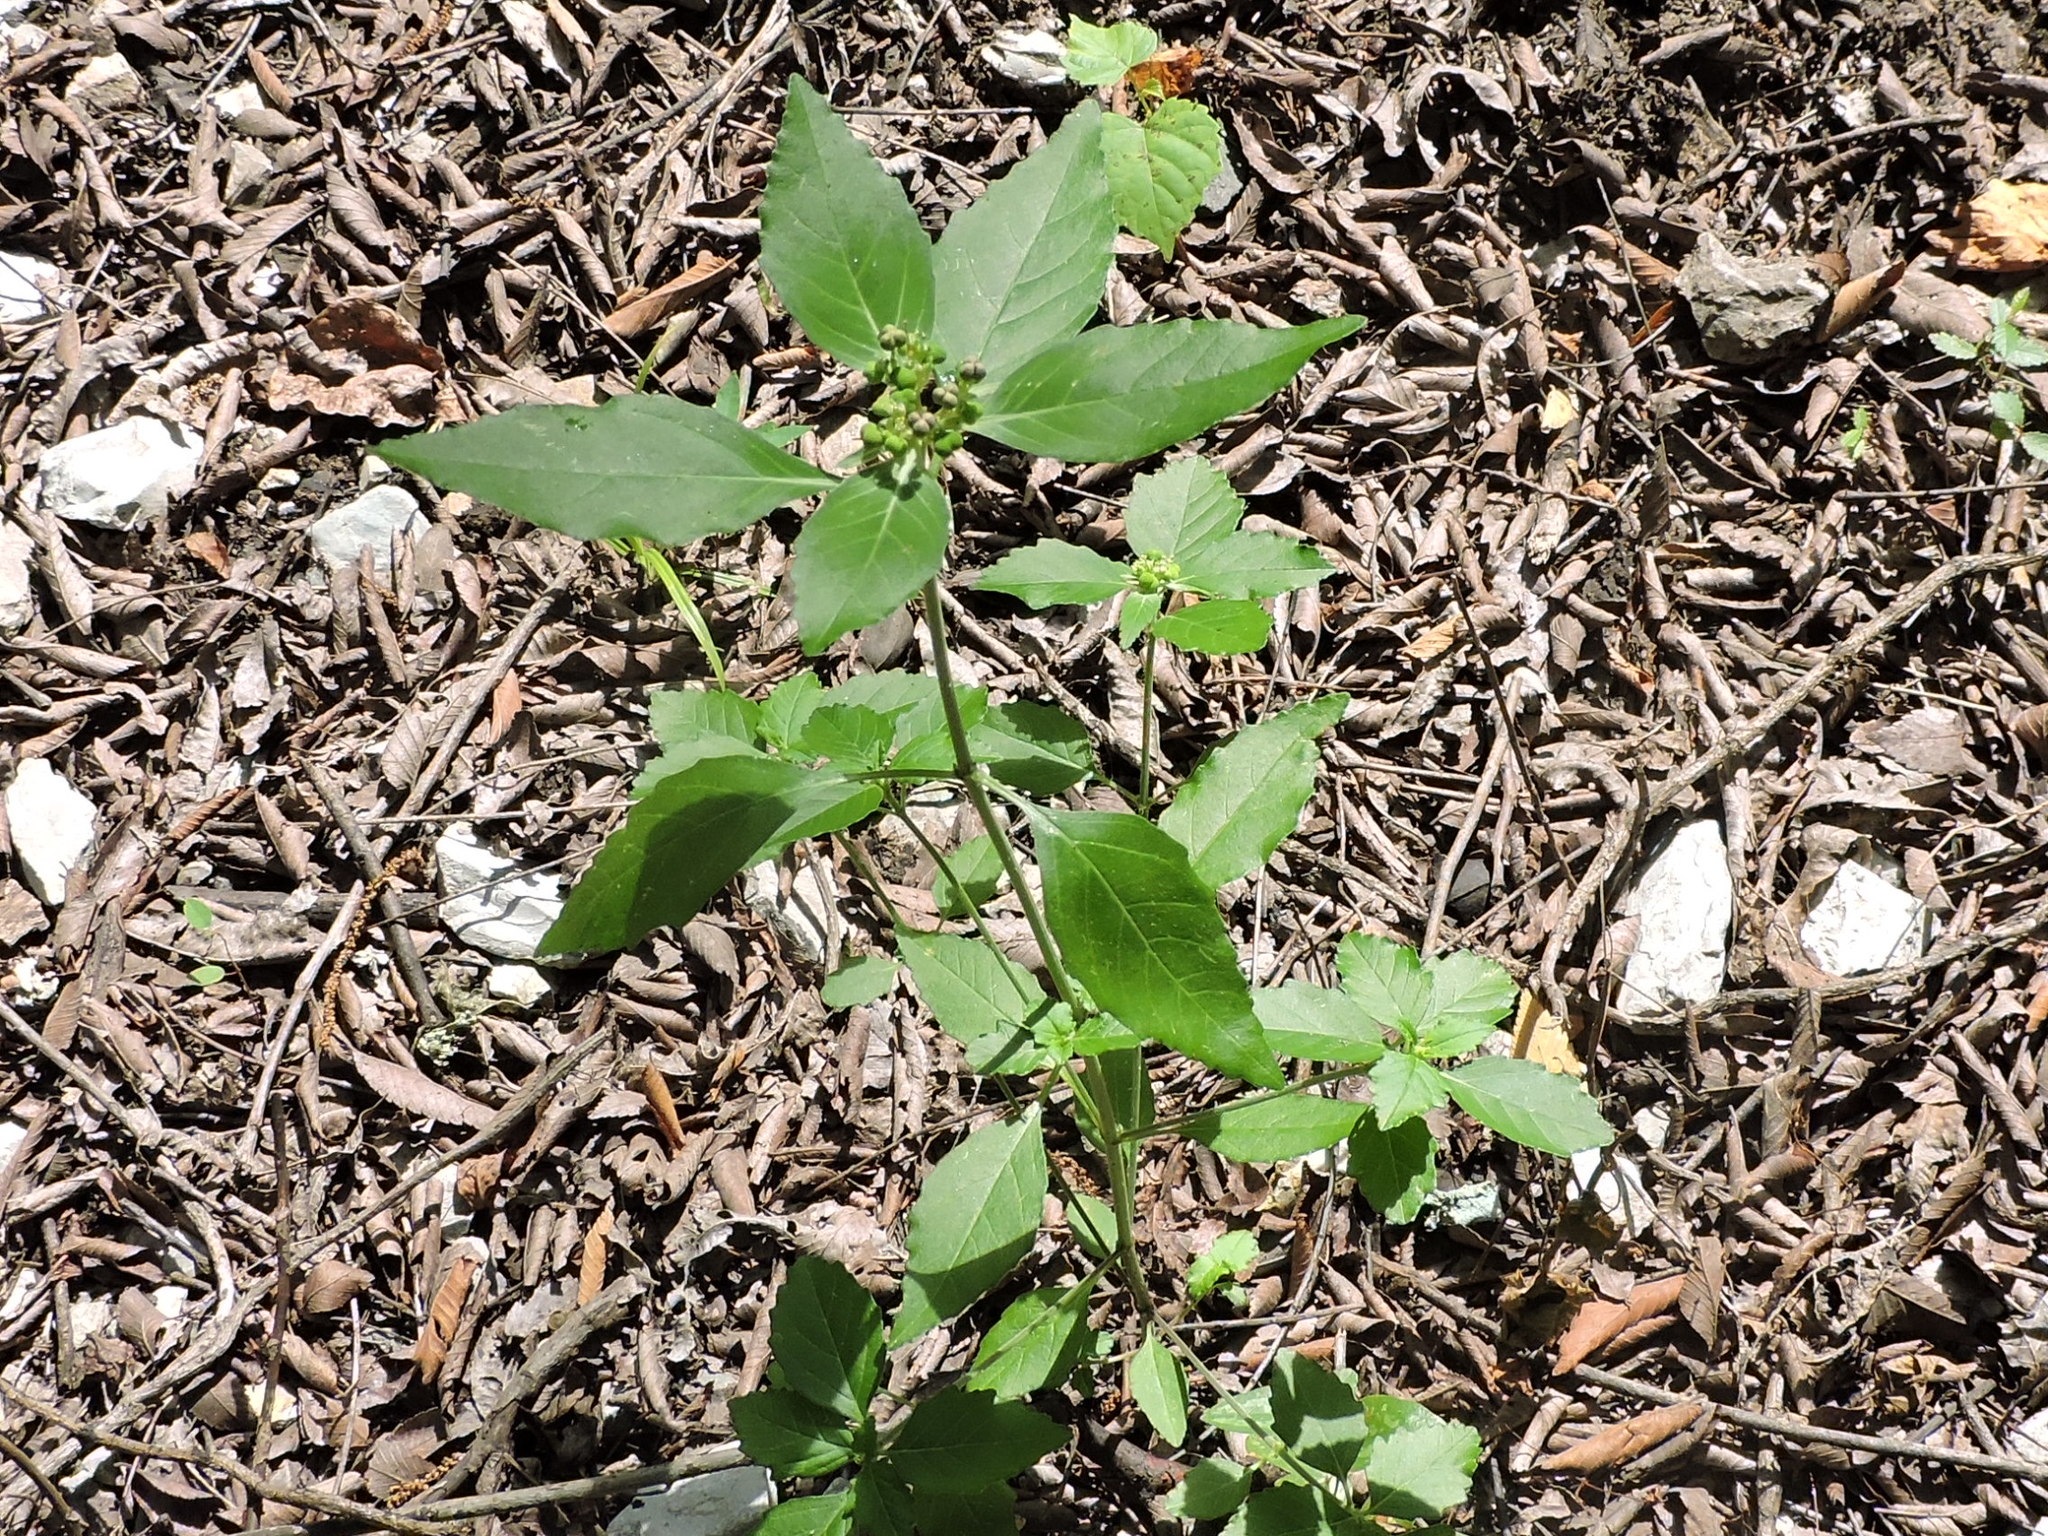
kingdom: Plantae
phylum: Tracheophyta
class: Magnoliopsida
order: Malpighiales
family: Euphorbiaceae
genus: Euphorbia
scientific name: Euphorbia dentata
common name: Dentate spurge
